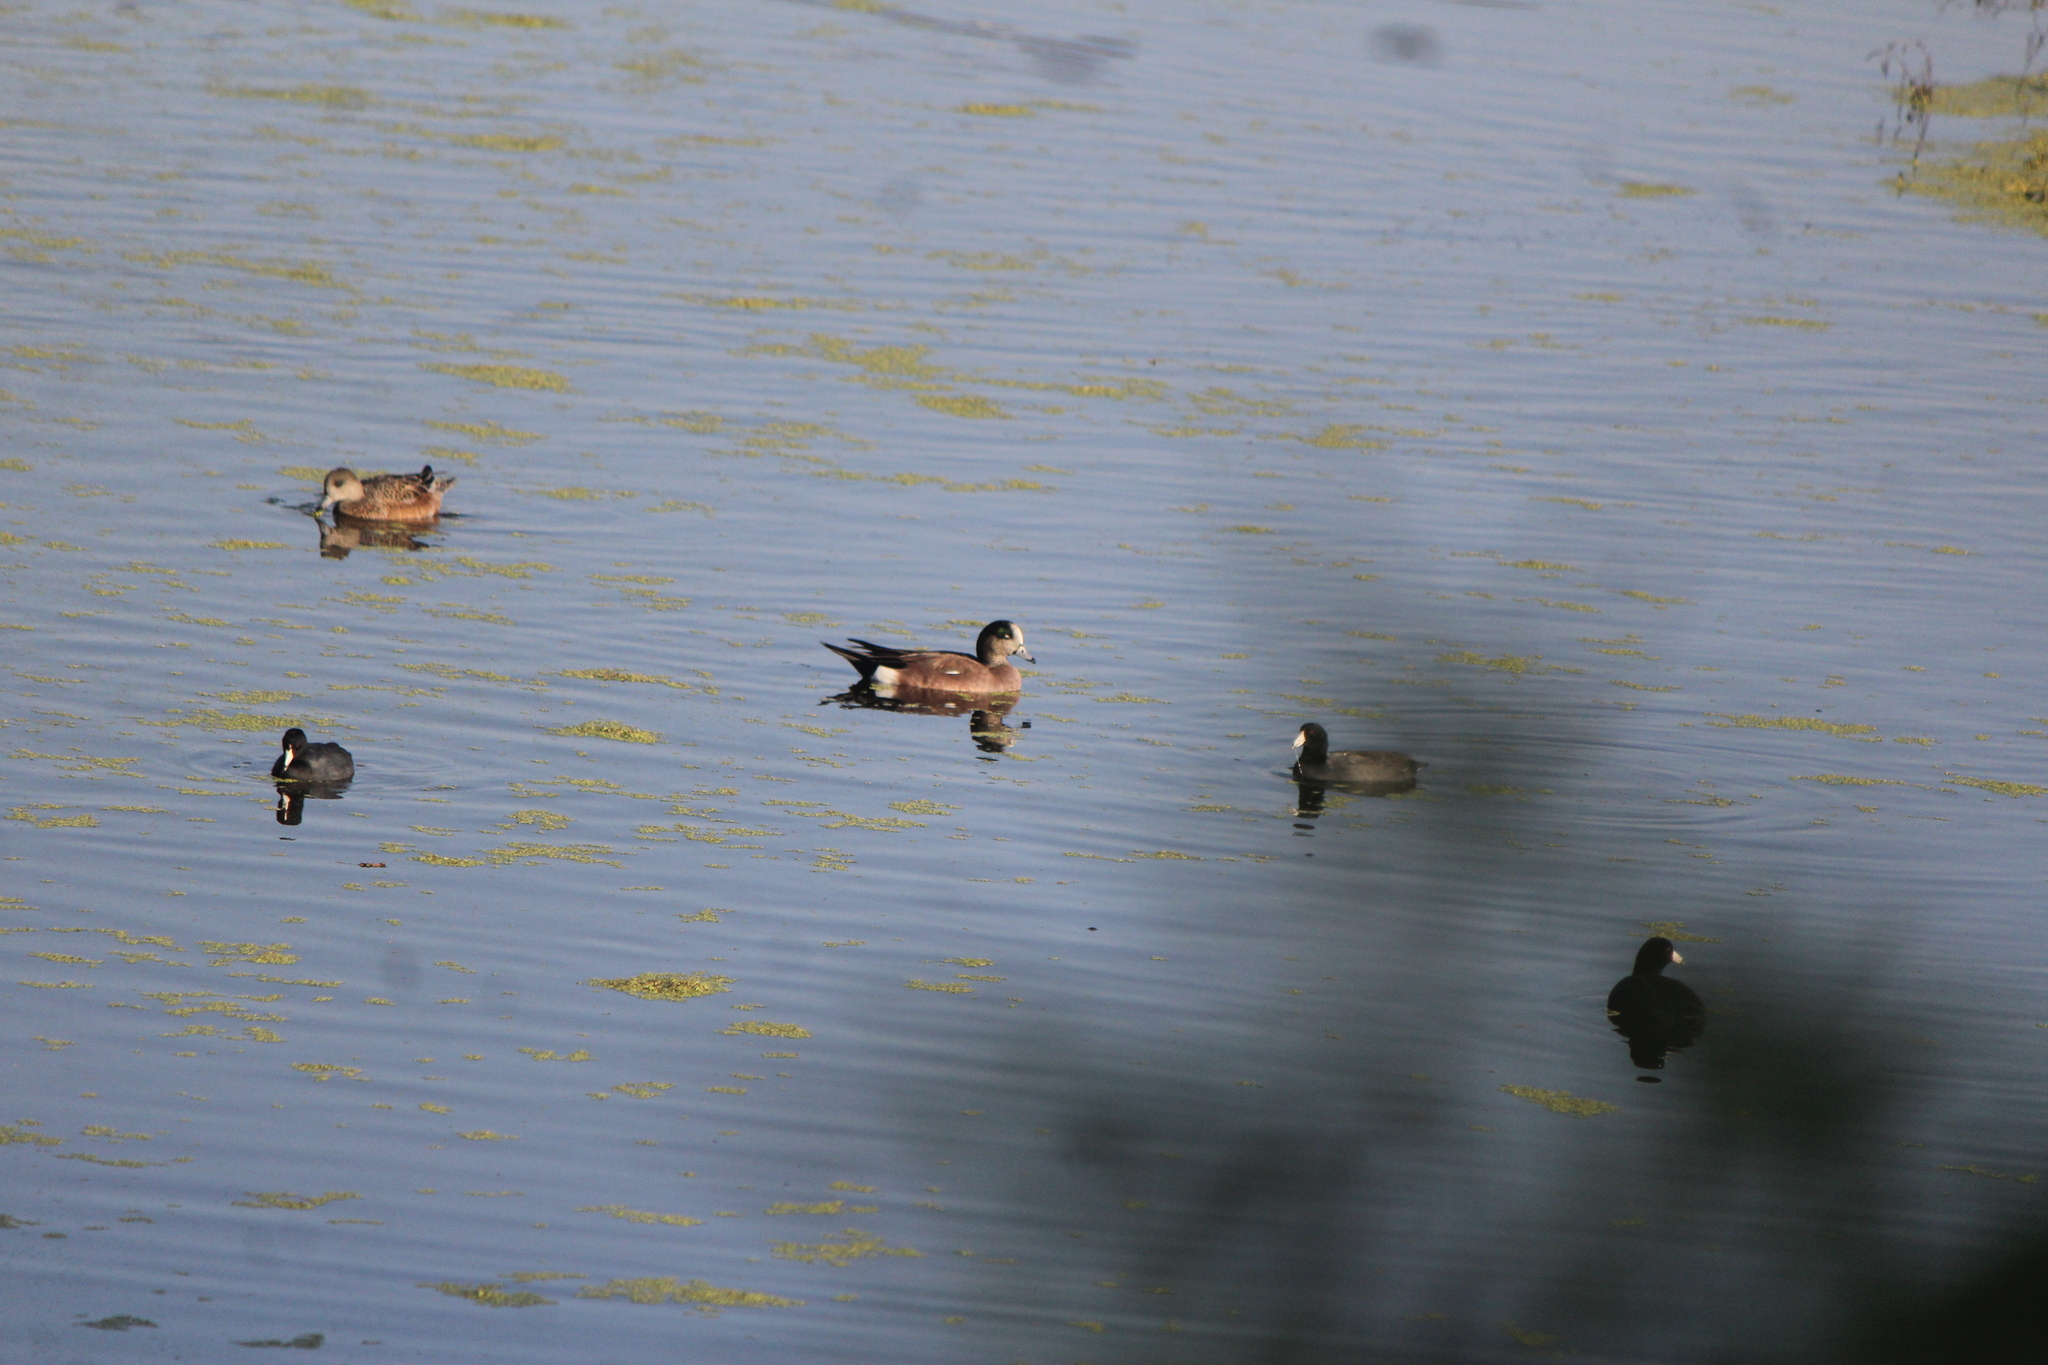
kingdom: Animalia
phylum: Chordata
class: Aves
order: Anseriformes
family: Anatidae
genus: Mareca
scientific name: Mareca americana
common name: American wigeon
